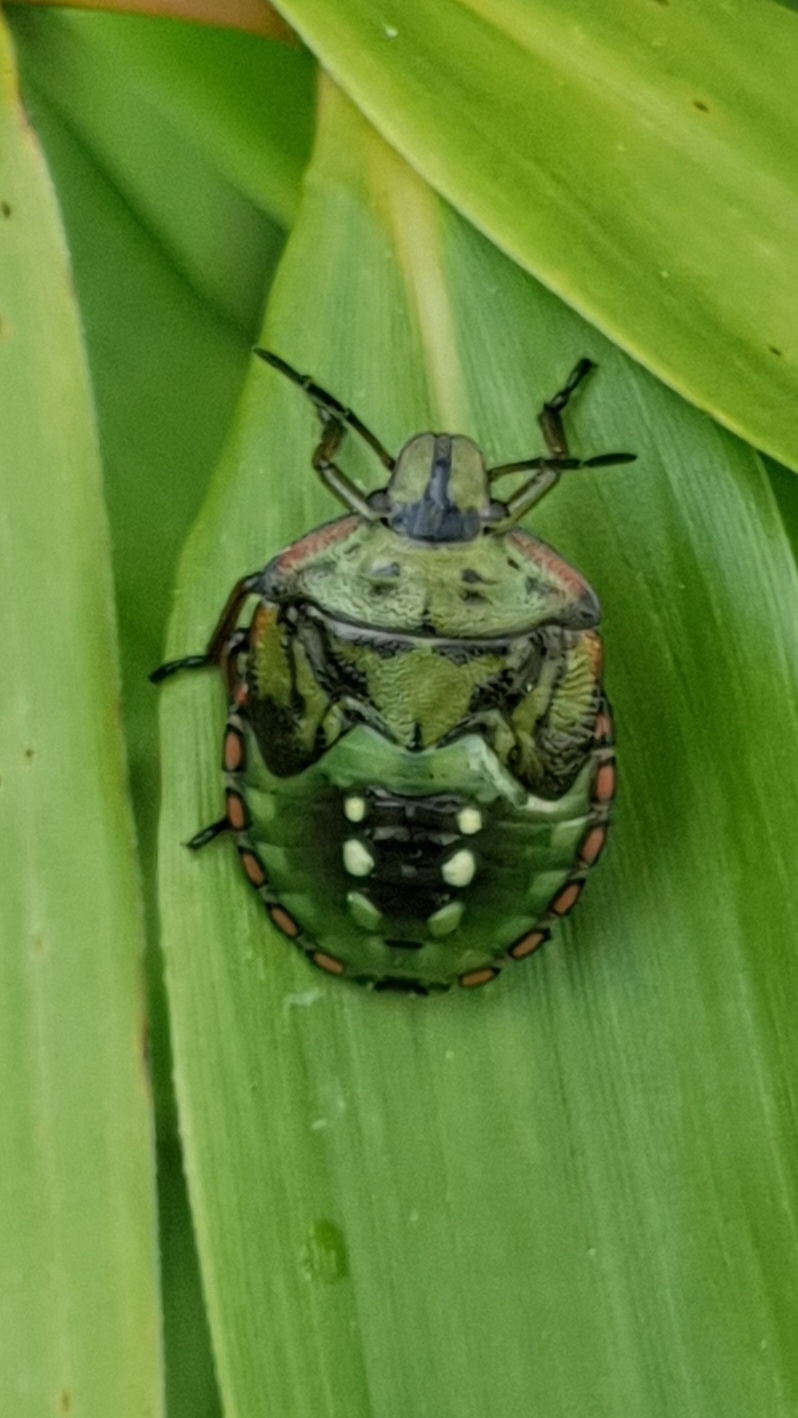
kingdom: Animalia
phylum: Arthropoda
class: Insecta
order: Hemiptera
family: Pentatomidae
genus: Nezara
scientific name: Nezara viridula
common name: Southern green stink bug
